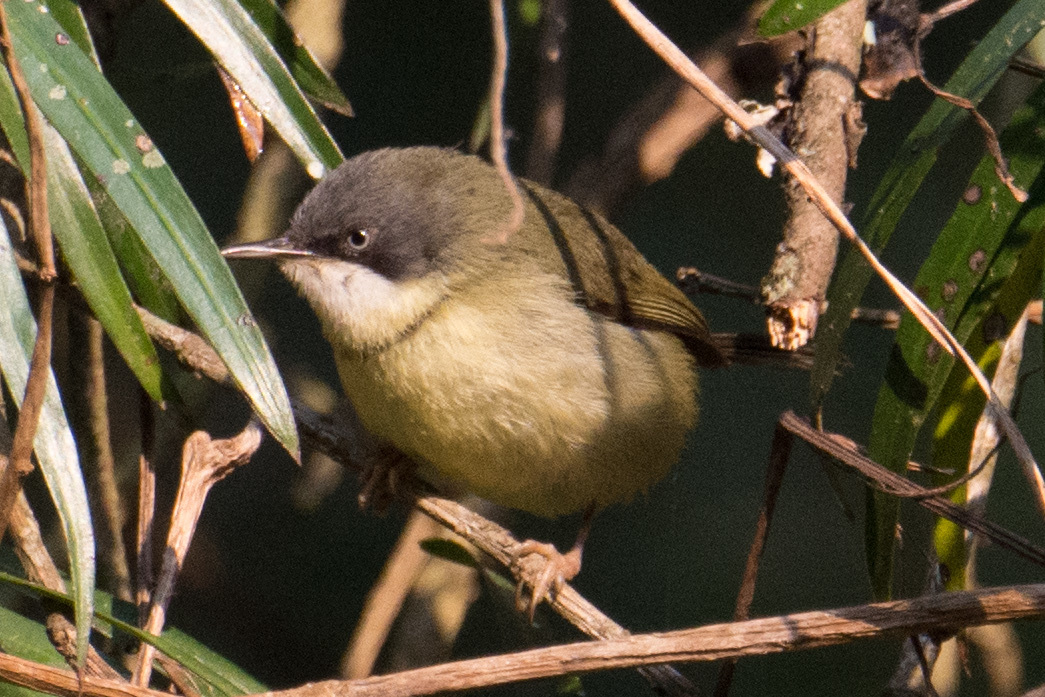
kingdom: Animalia
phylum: Chordata
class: Aves
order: Passeriformes
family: Cisticolidae
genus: Apalis
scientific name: Apalis thoracica
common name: Bar-throated apalis
